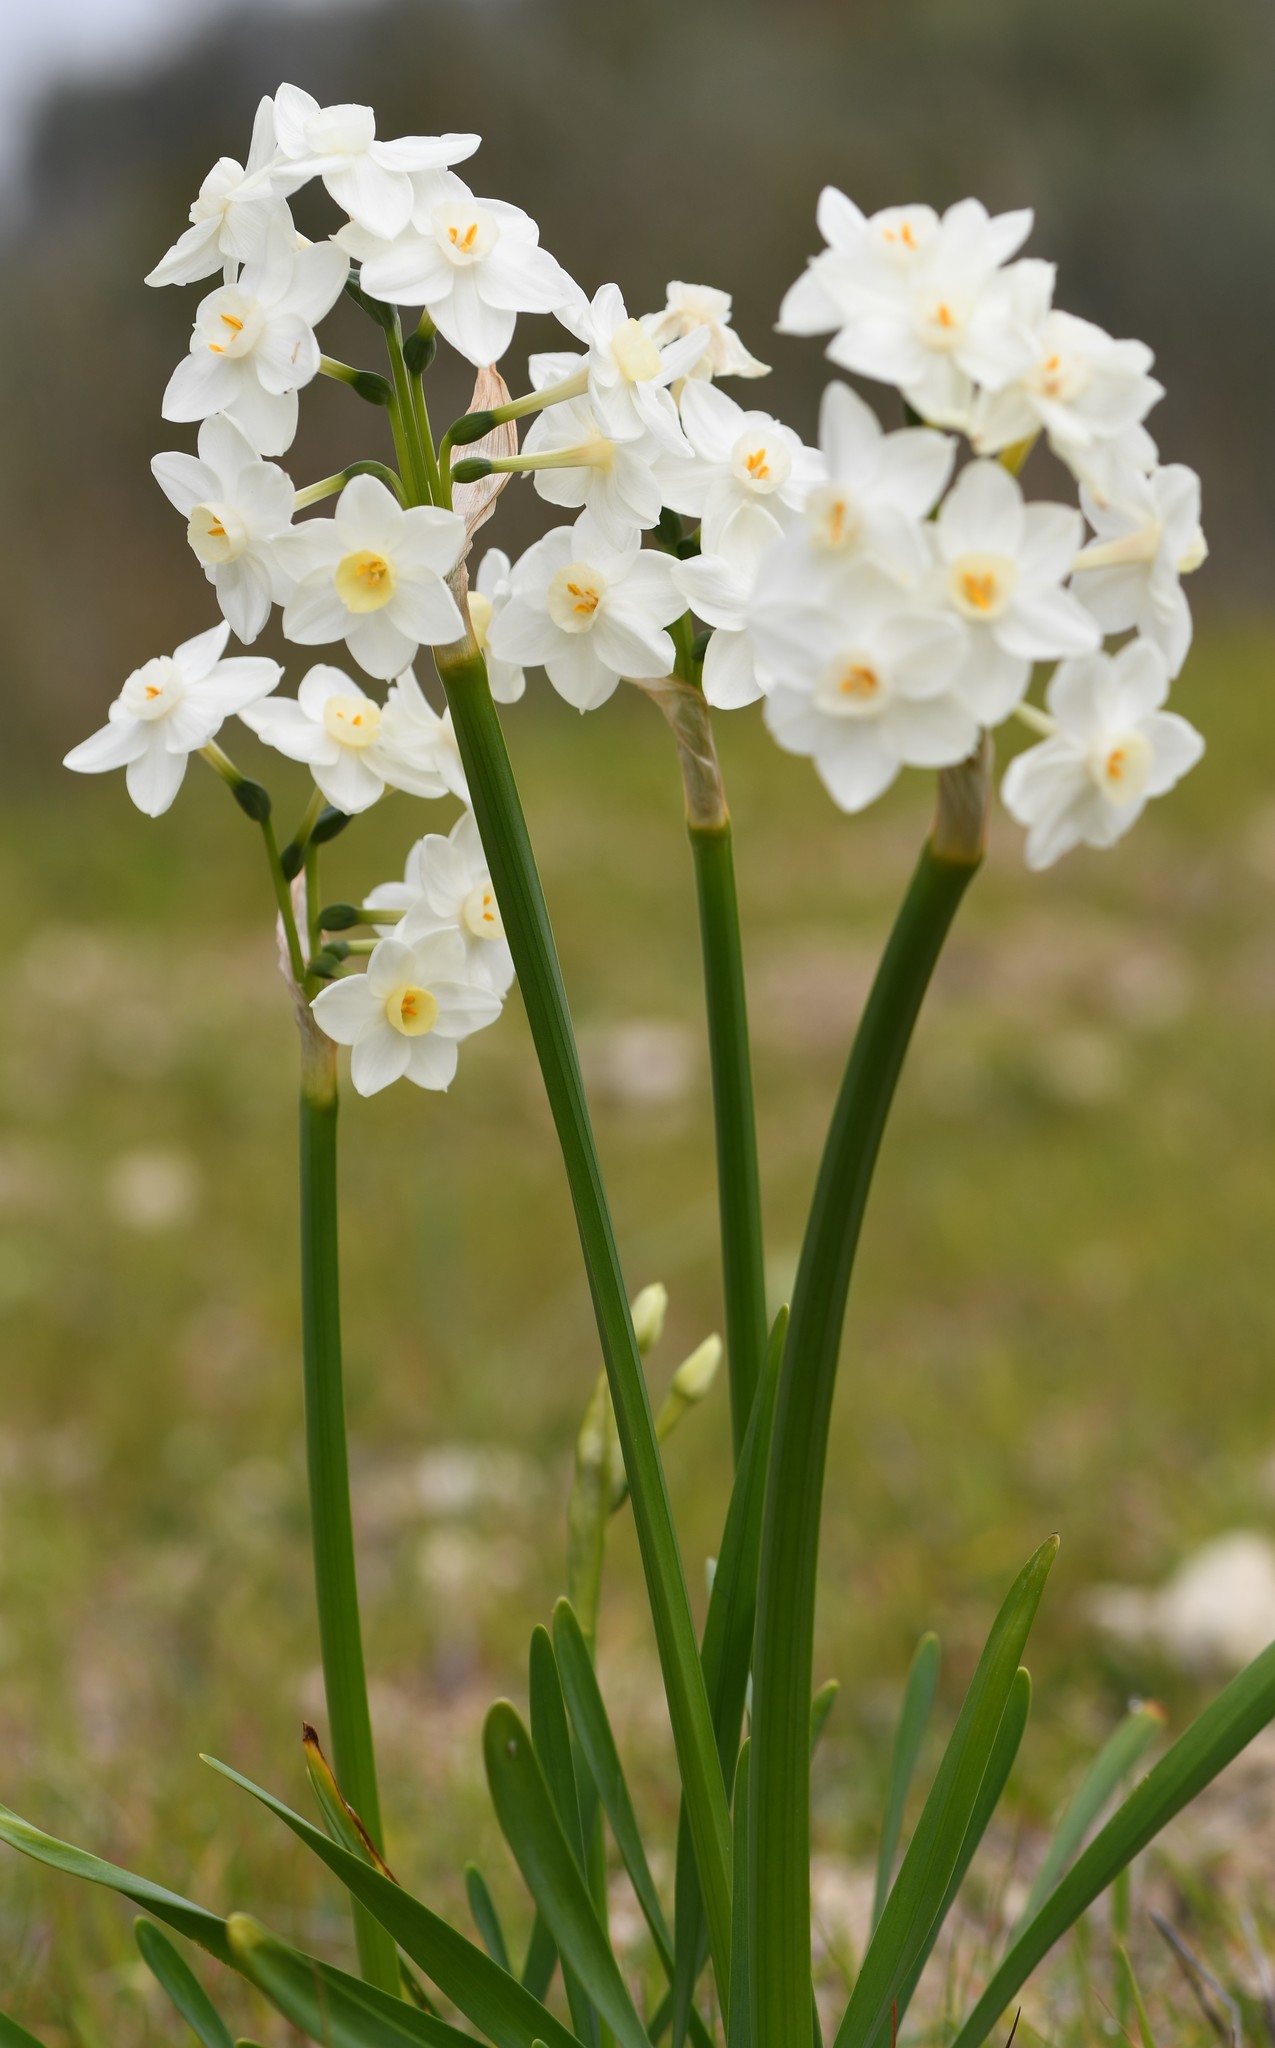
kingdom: Plantae
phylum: Tracheophyta
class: Liliopsida
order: Asparagales
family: Amaryllidaceae
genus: Narcissus
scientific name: Narcissus papyraceus
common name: Paper-white daffodil
